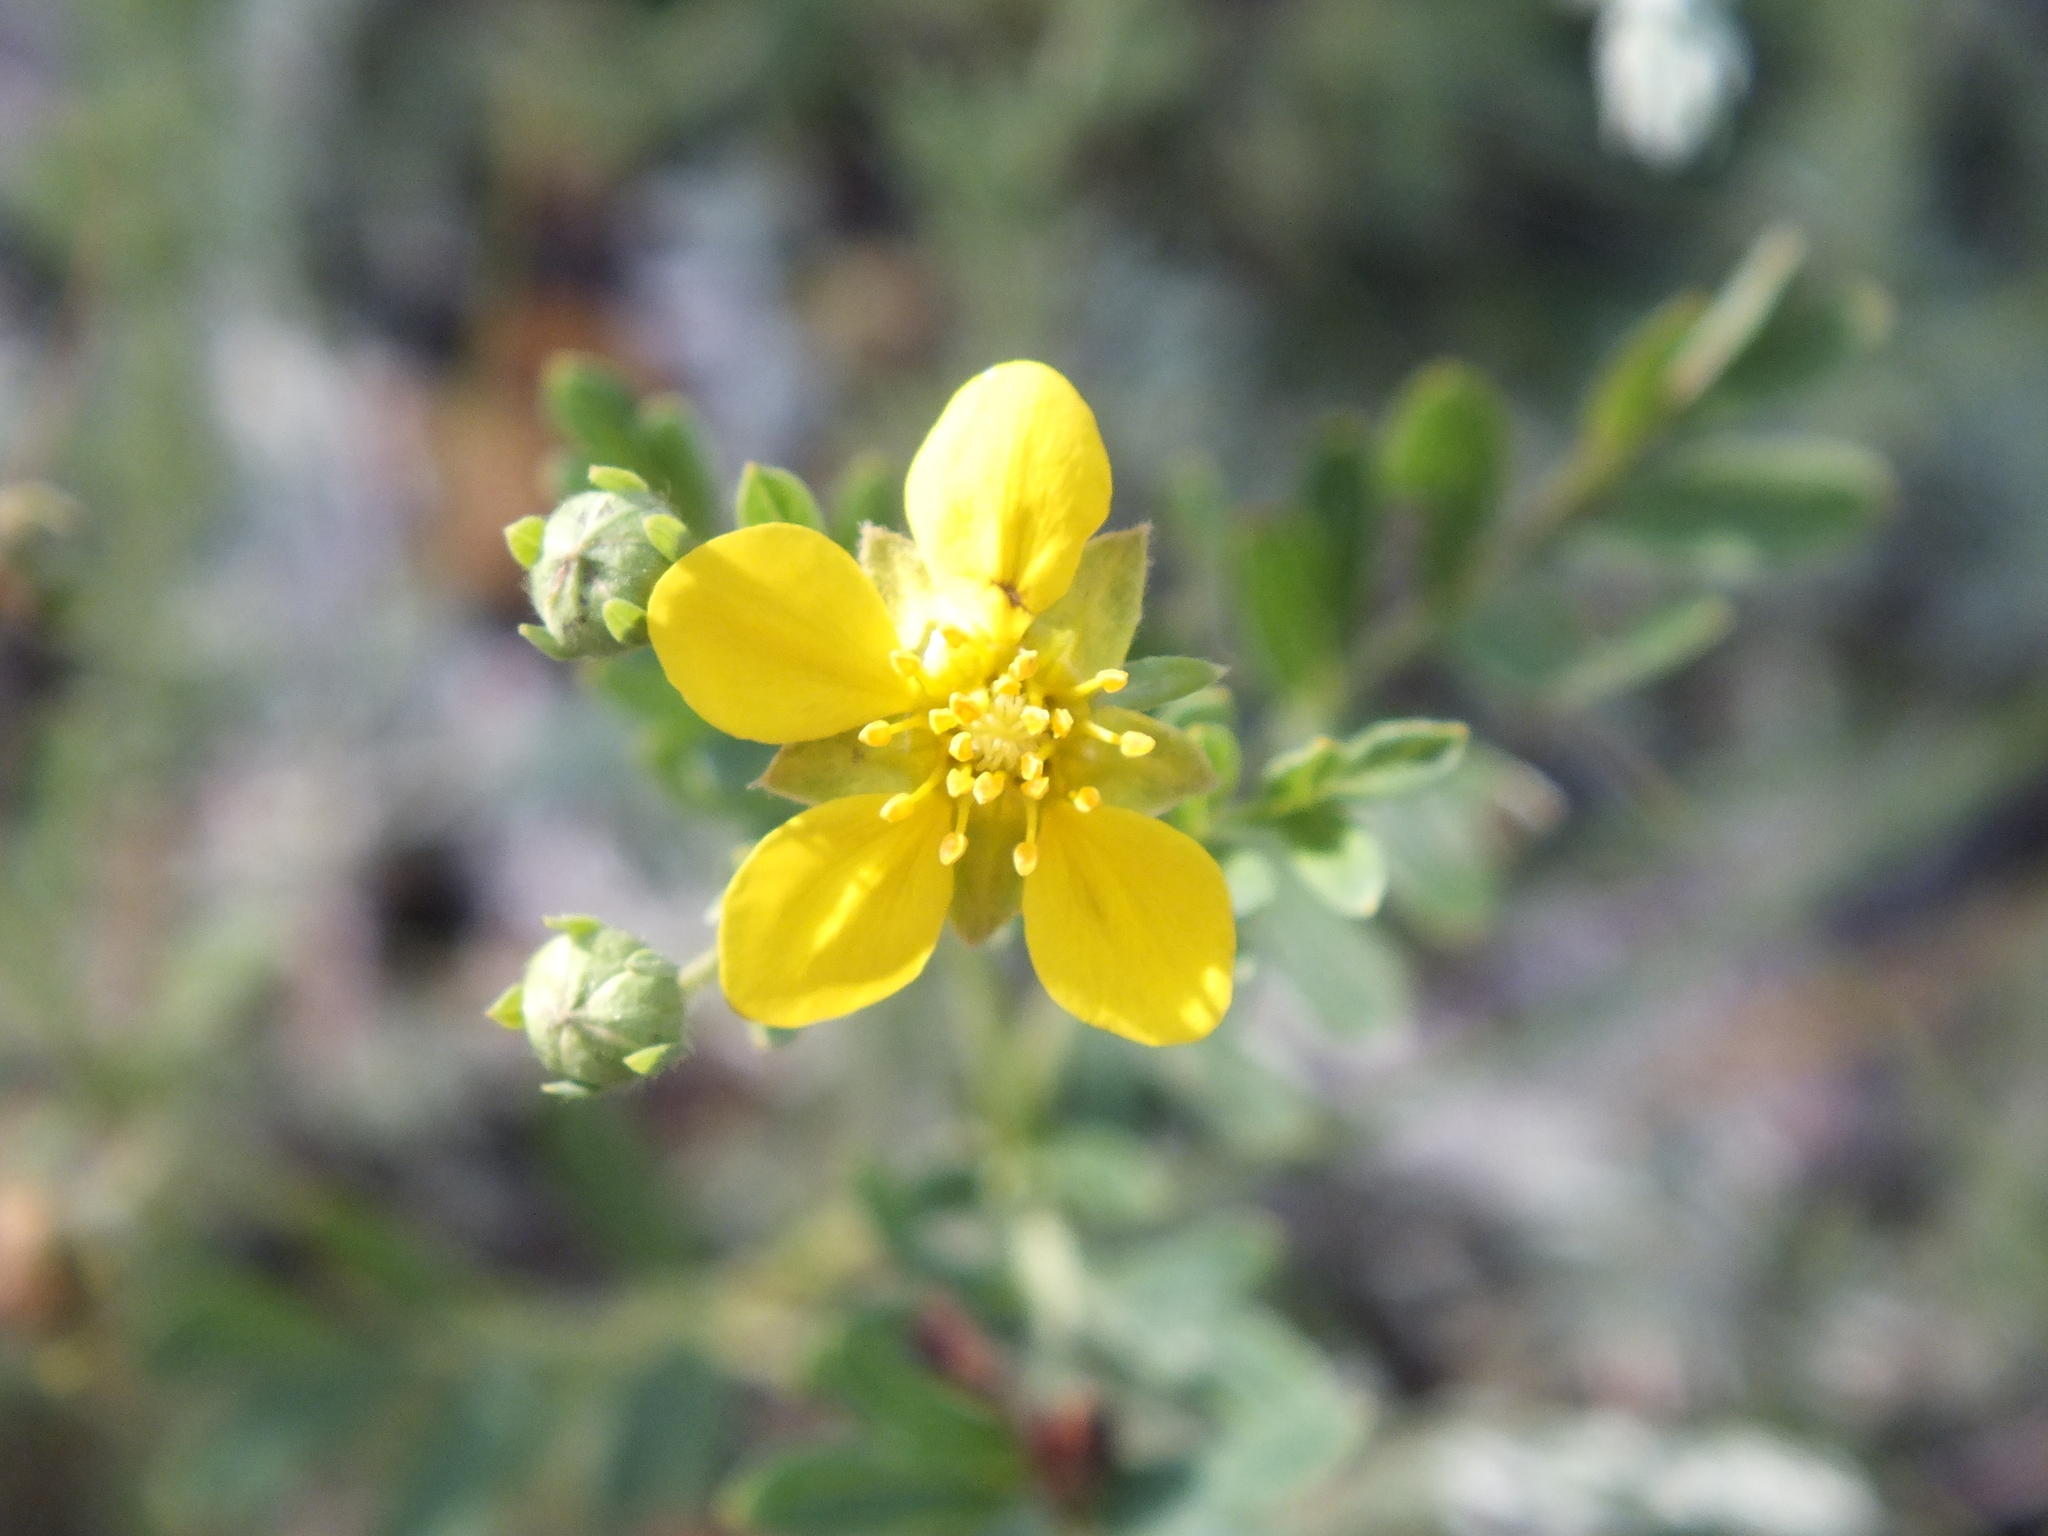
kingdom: Plantae
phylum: Tracheophyta
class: Magnoliopsida
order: Rosales
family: Rosaceae
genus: Sibbaldianthe
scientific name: Sibbaldianthe bifurca
